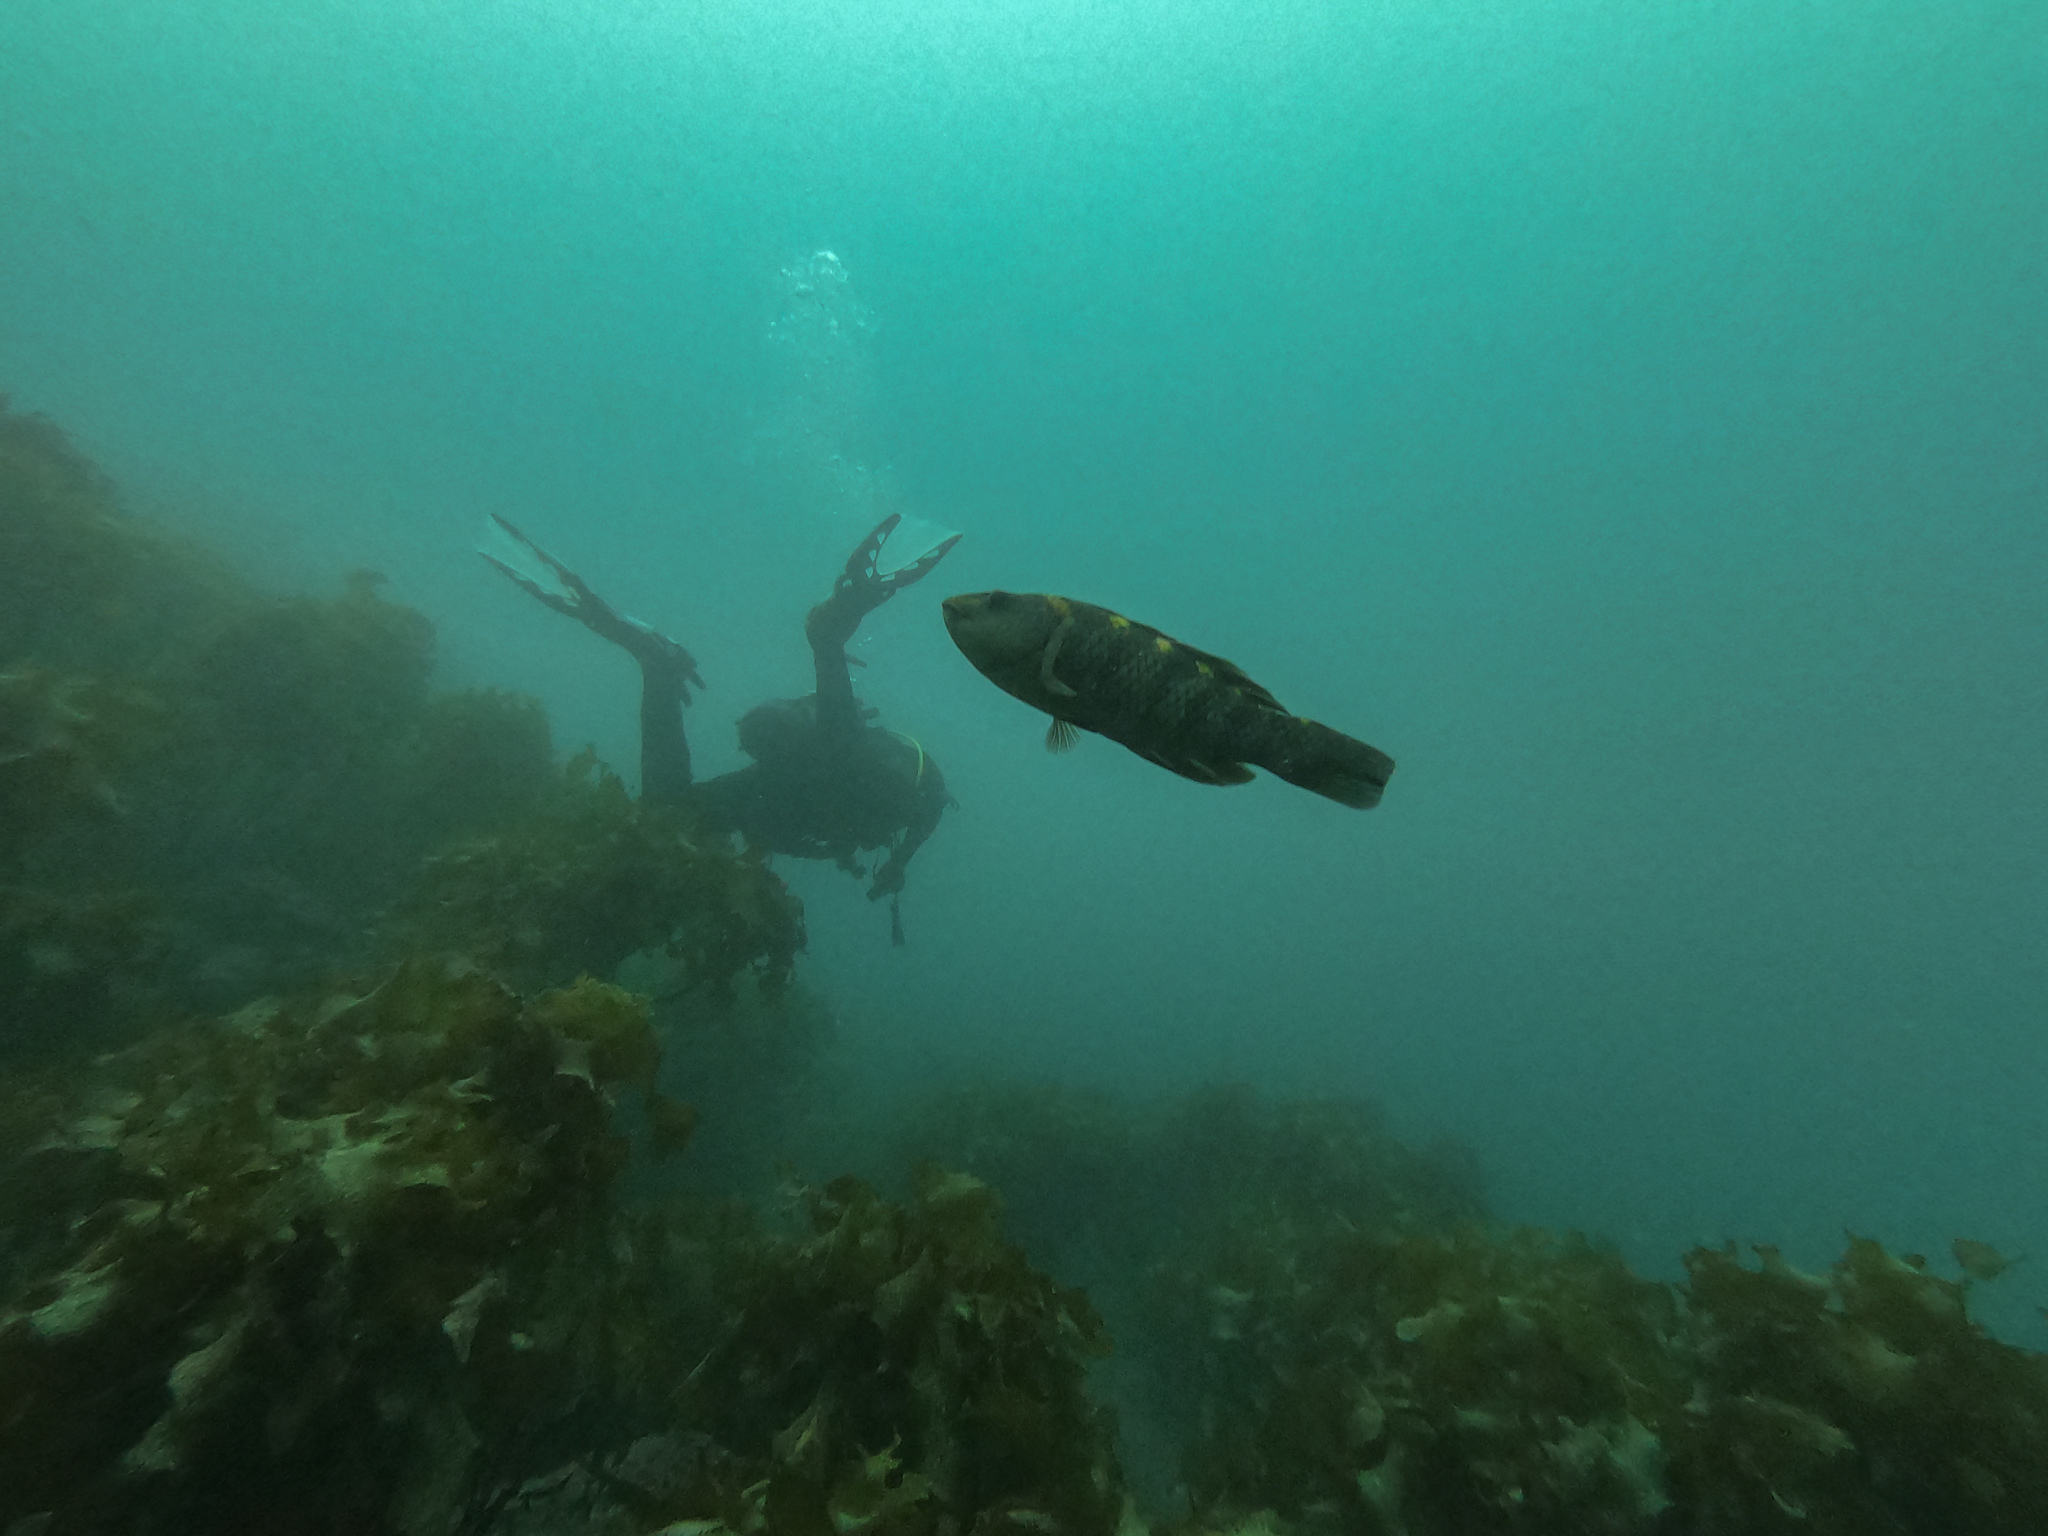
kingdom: Animalia
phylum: Chordata
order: Perciformes
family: Labridae
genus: Notolabrus
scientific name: Notolabrus fucicola
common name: Banded parrotfish
